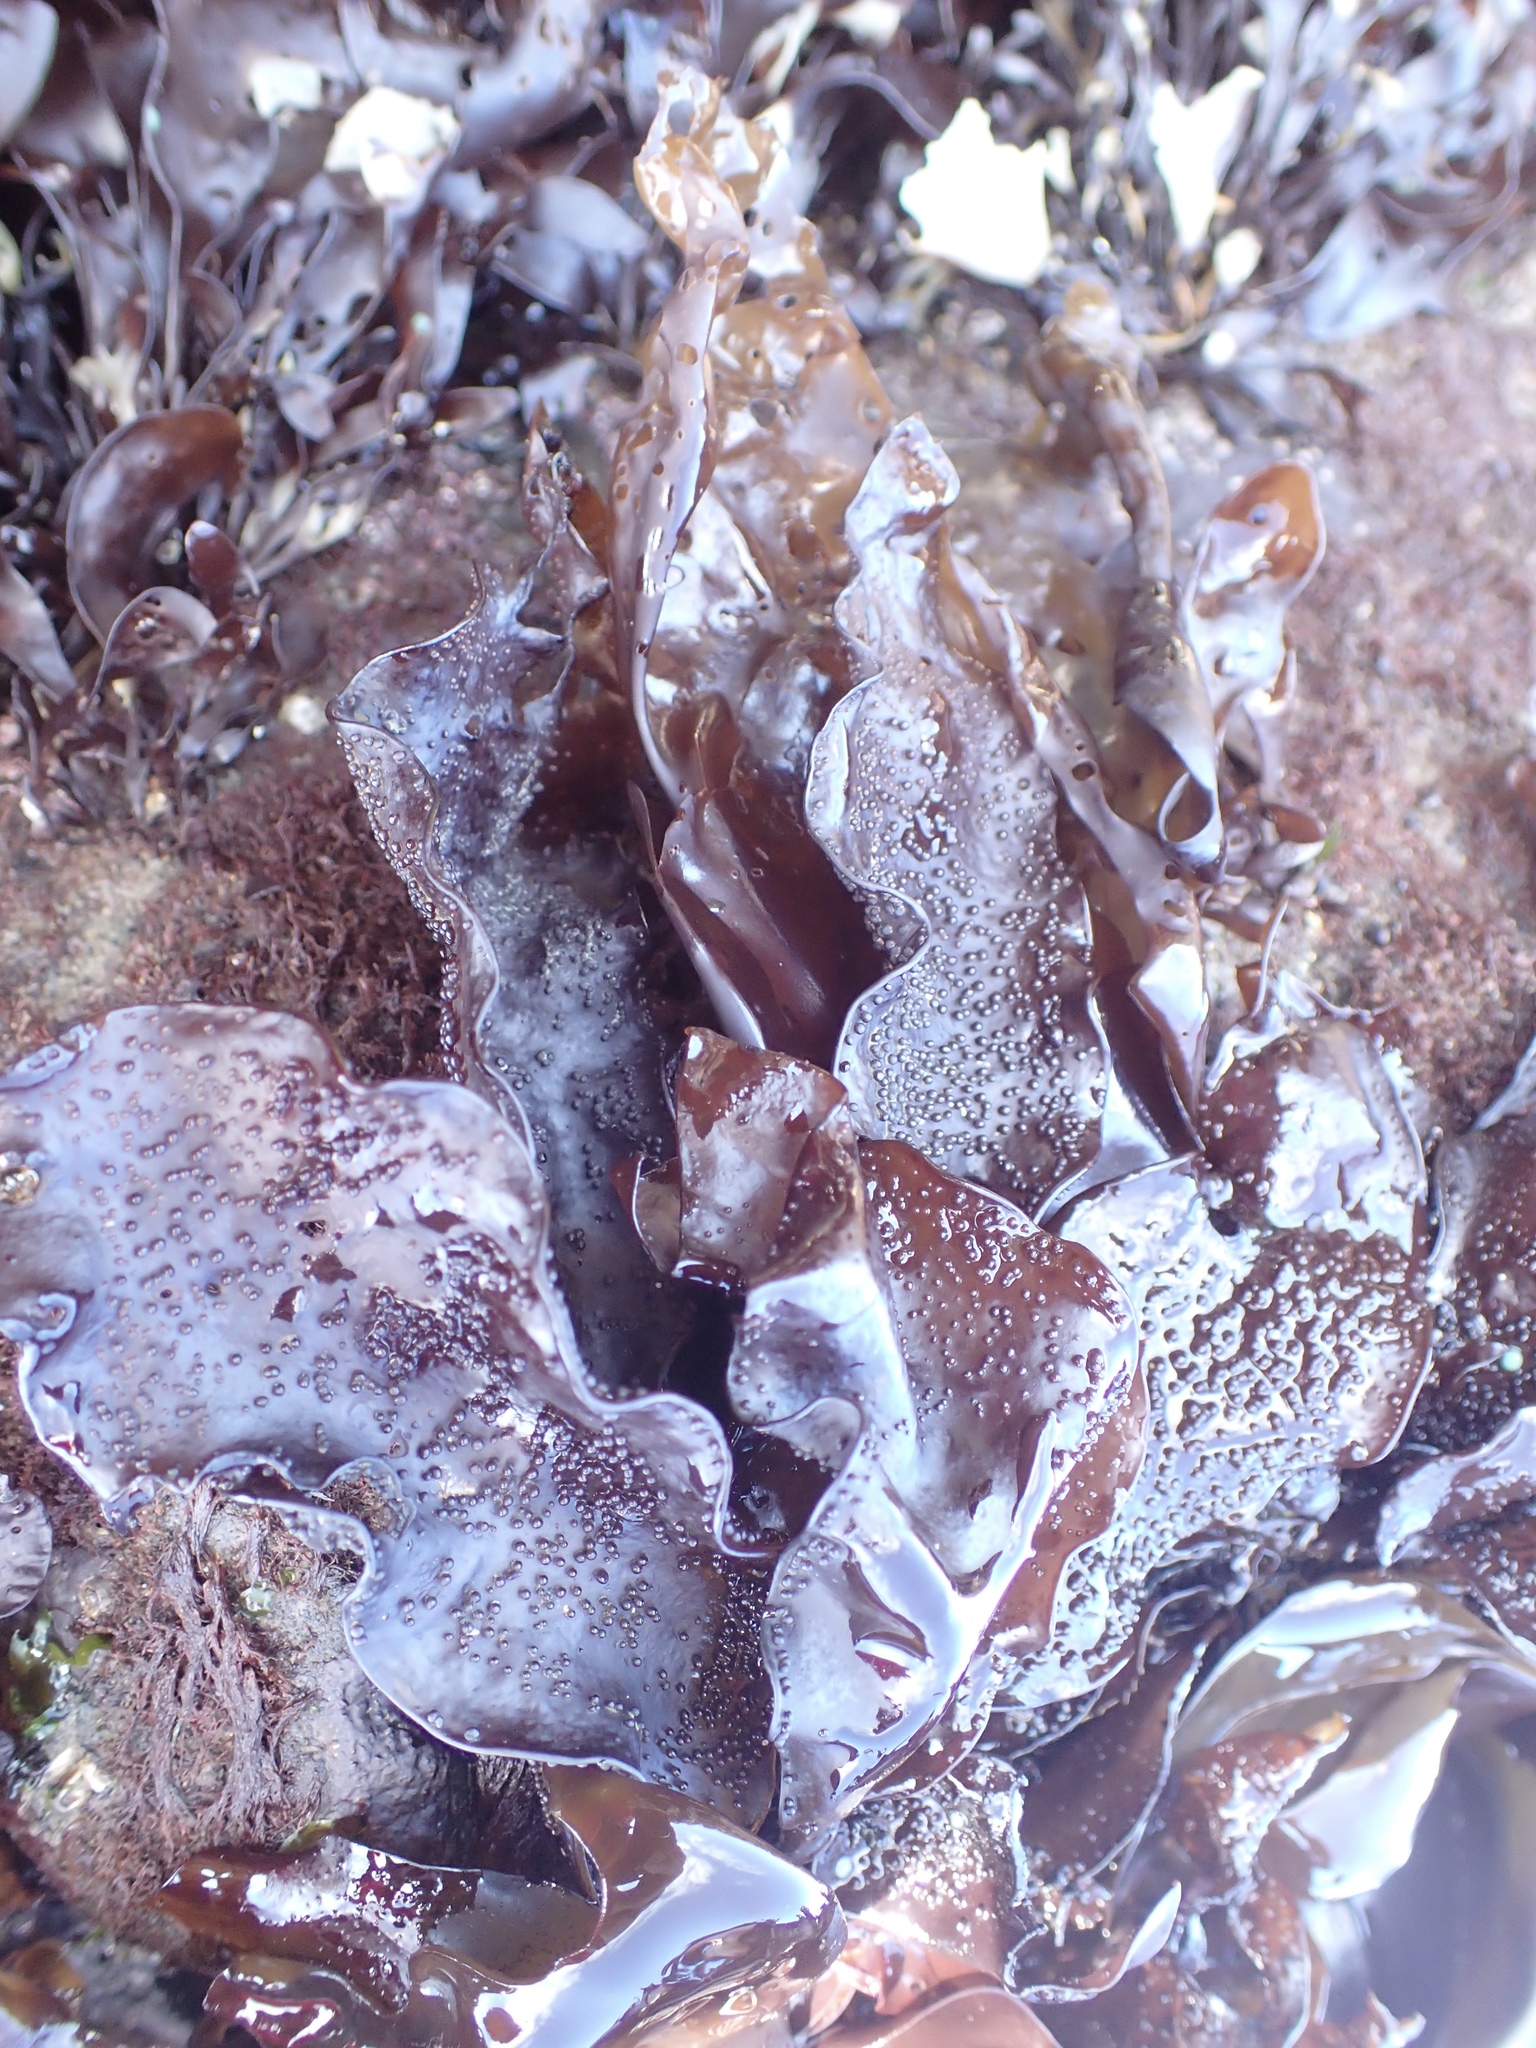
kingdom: Plantae
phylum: Rhodophyta
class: Florideophyceae
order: Gigartinales
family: Phyllophoraceae
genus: Mastocarpus
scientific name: Mastocarpus papillatus
